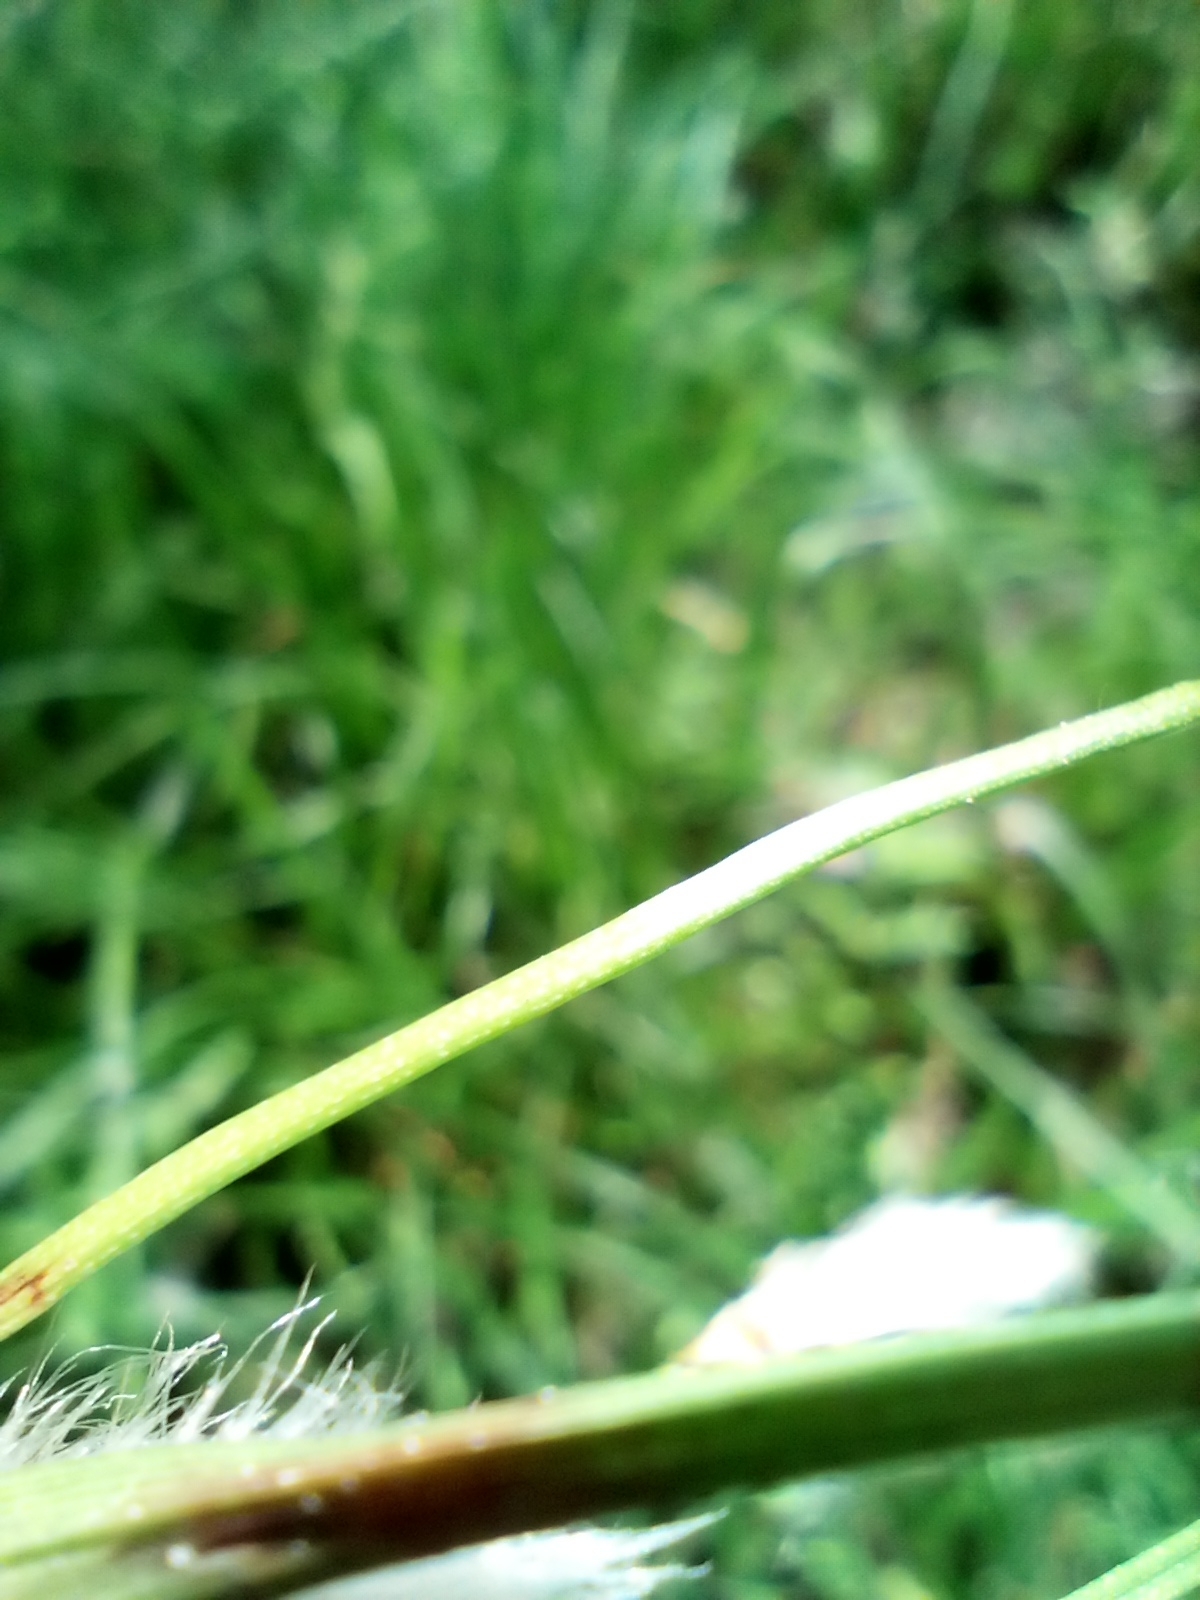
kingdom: Plantae
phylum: Tracheophyta
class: Liliopsida
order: Poales
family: Cyperaceae
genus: Eriophorum
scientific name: Eriophorum angustifolium
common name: Common cottongrass
